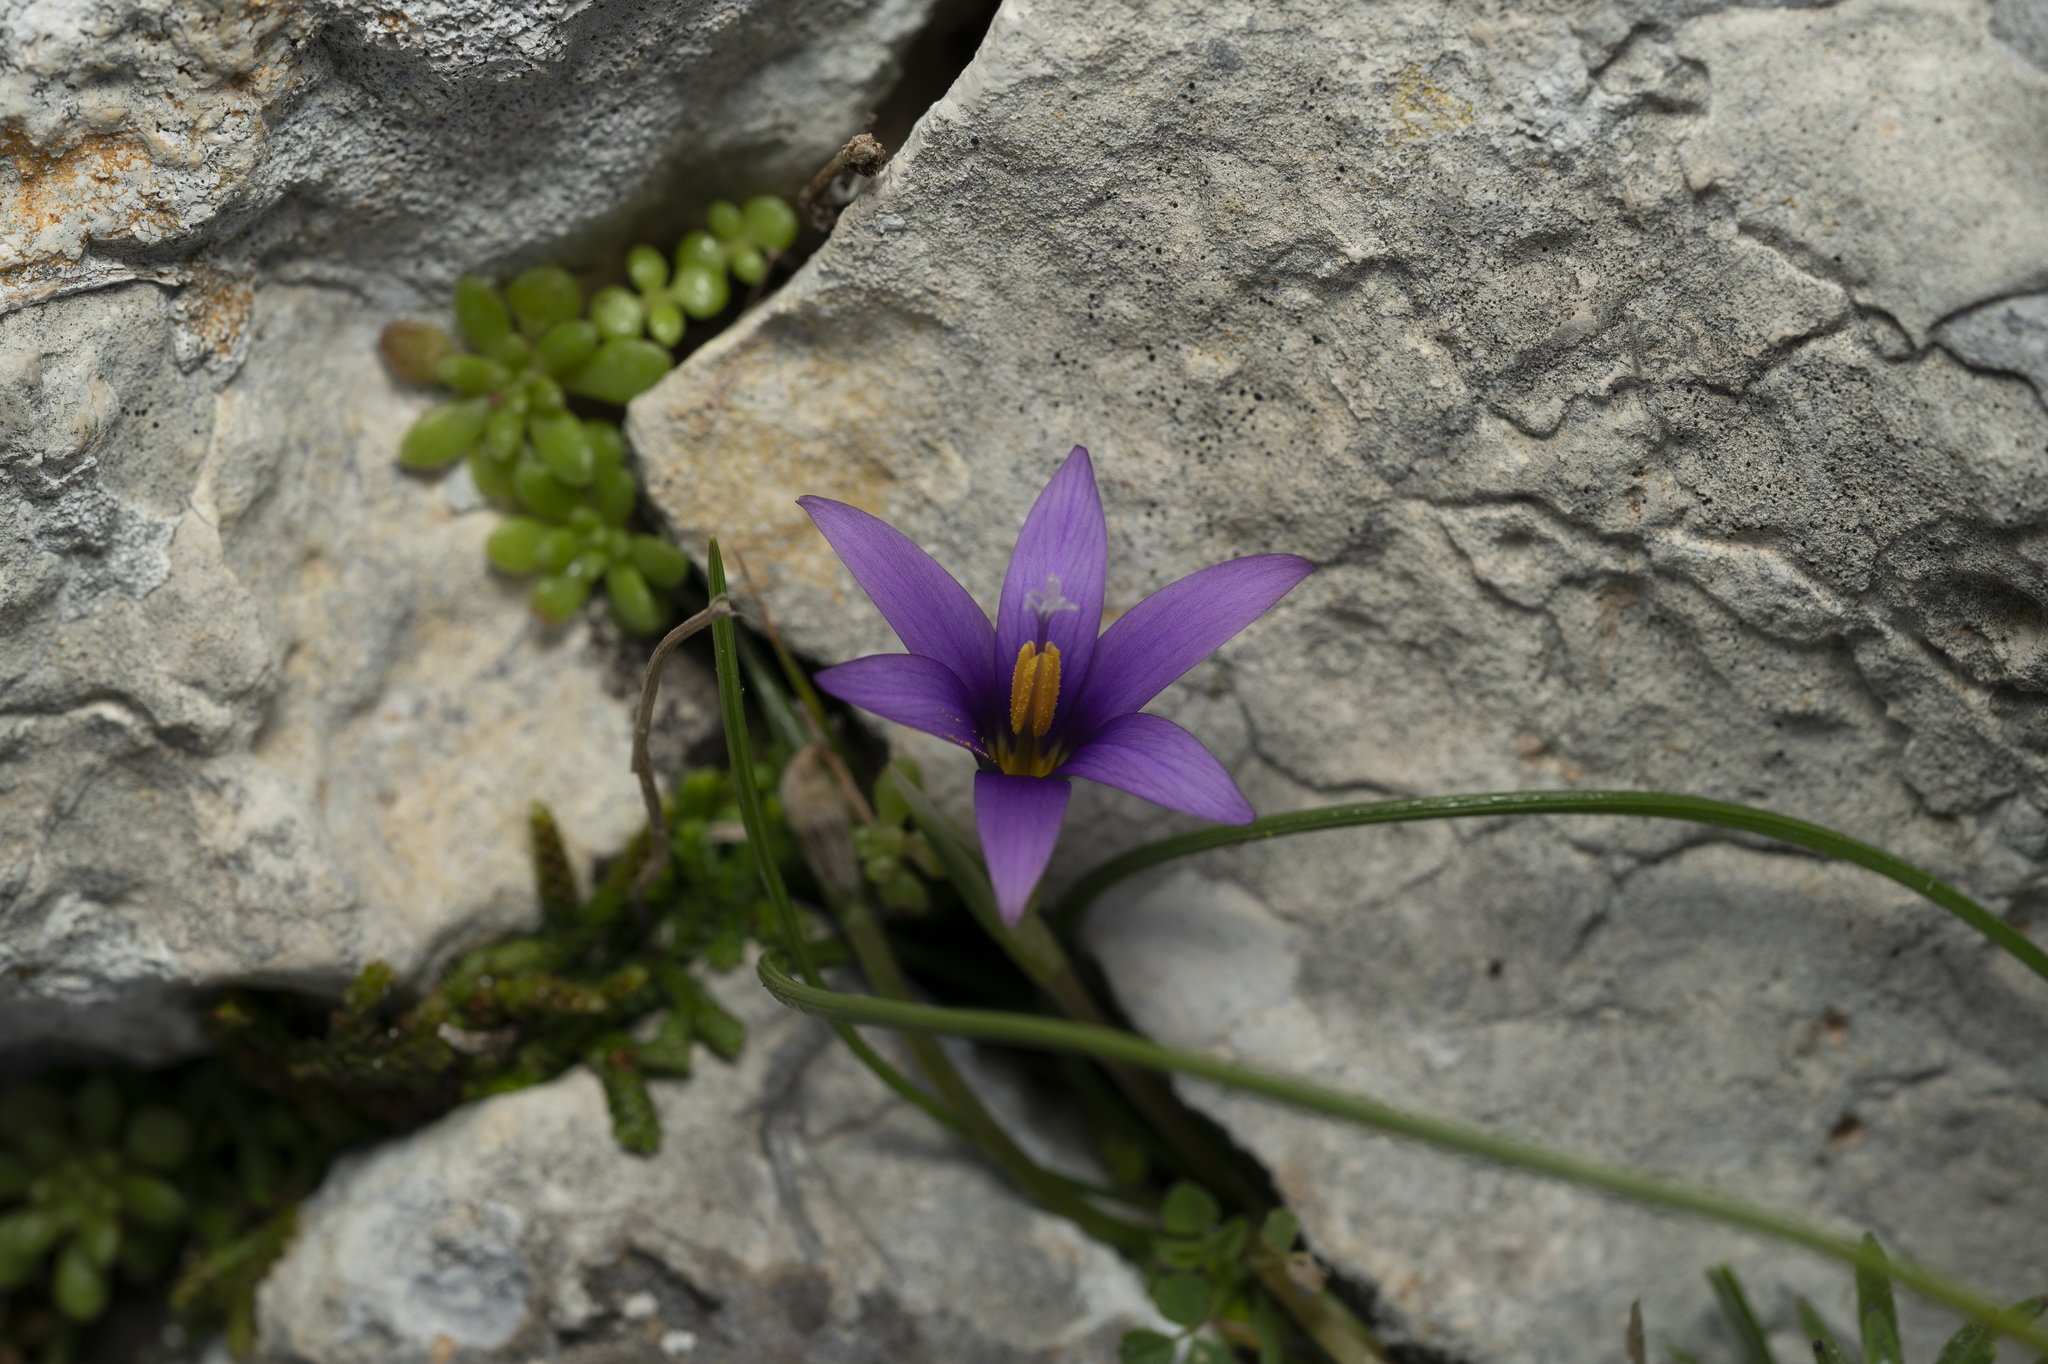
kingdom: Plantae
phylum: Tracheophyta
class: Liliopsida
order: Asparagales
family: Iridaceae
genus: Romulea
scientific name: Romulea tempskyana
